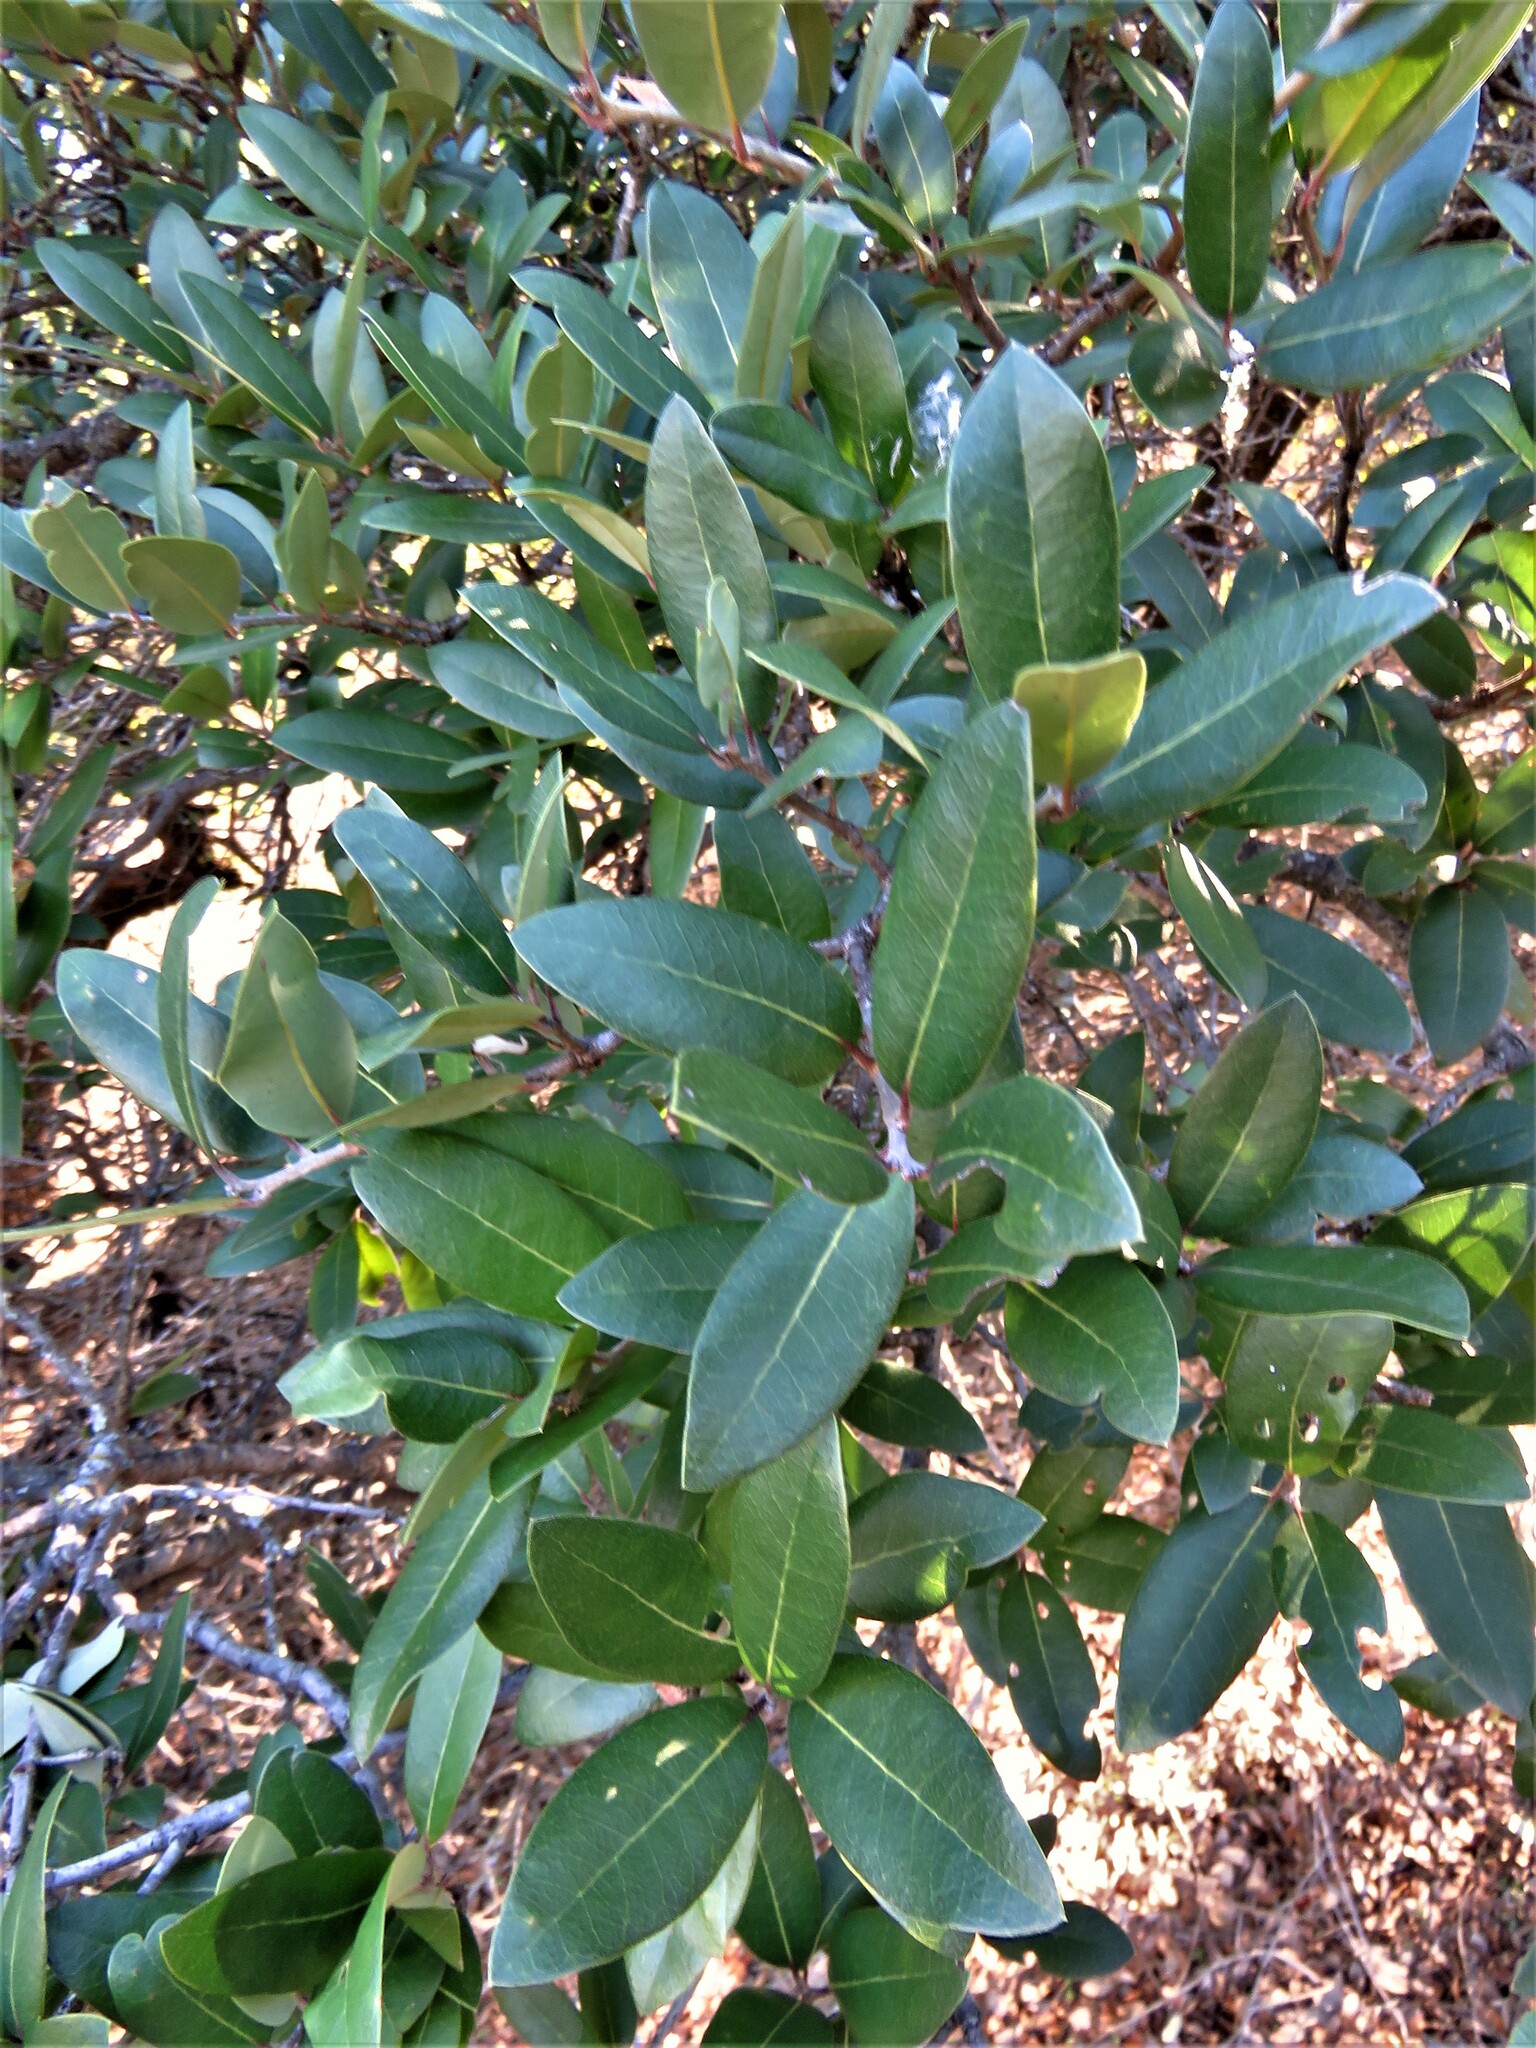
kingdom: Plantae
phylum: Tracheophyta
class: Magnoliopsida
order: Fagales
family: Fagaceae
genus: Quercus
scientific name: Quercus fusiformis
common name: Texas live oak
